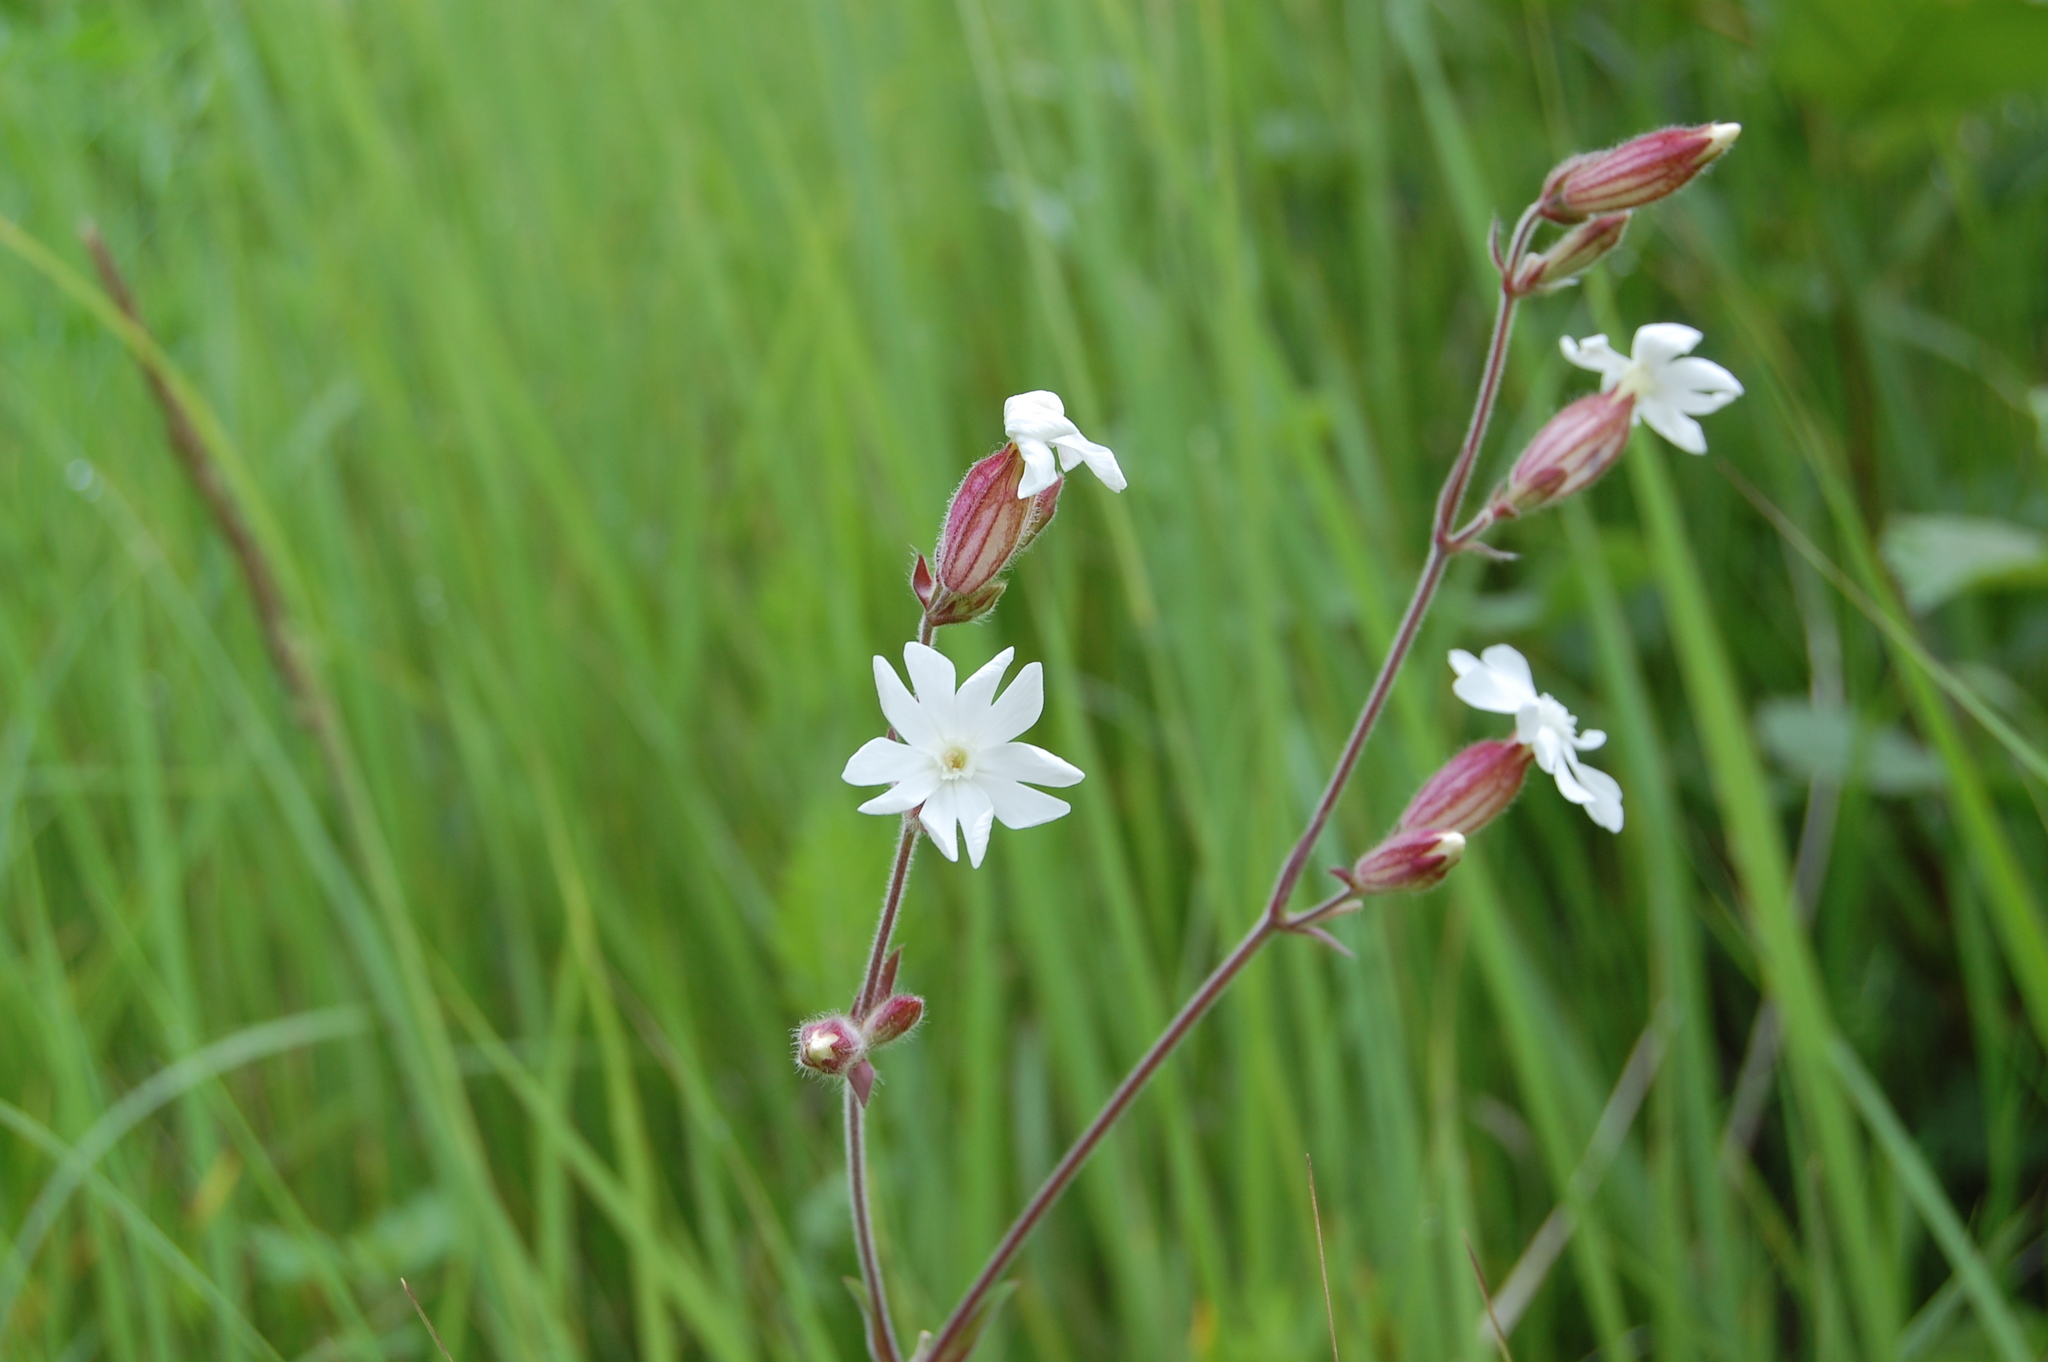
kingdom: Plantae
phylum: Tracheophyta
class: Magnoliopsida
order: Caryophyllales
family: Caryophyllaceae
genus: Silene
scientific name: Silene latifolia
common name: White campion
